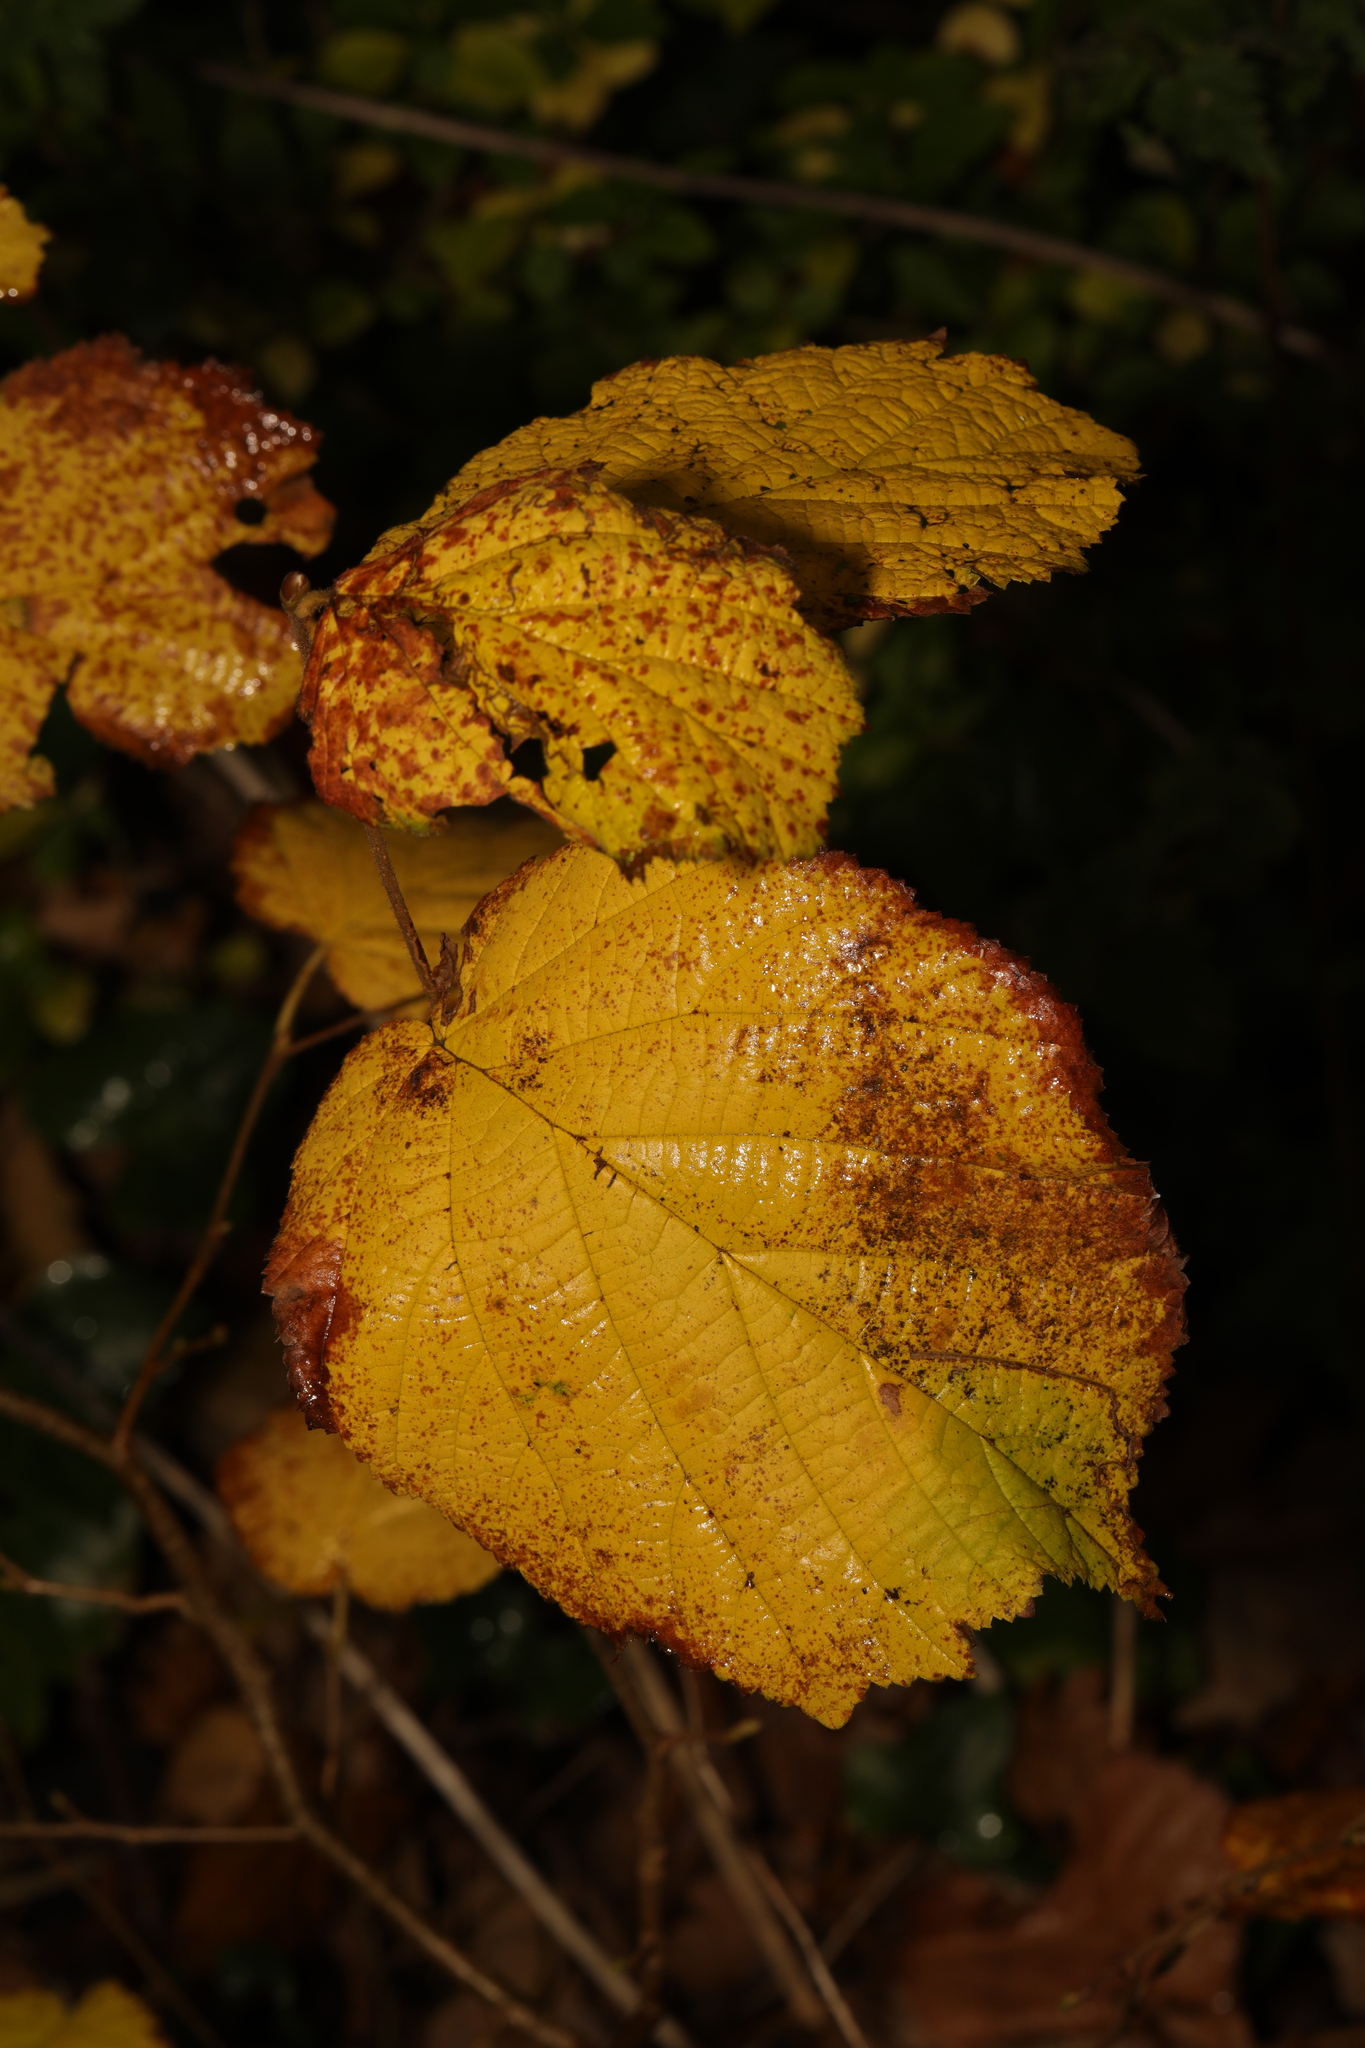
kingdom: Plantae
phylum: Tracheophyta
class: Magnoliopsida
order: Fagales
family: Betulaceae
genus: Corylus
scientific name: Corylus avellana
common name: European hazel
